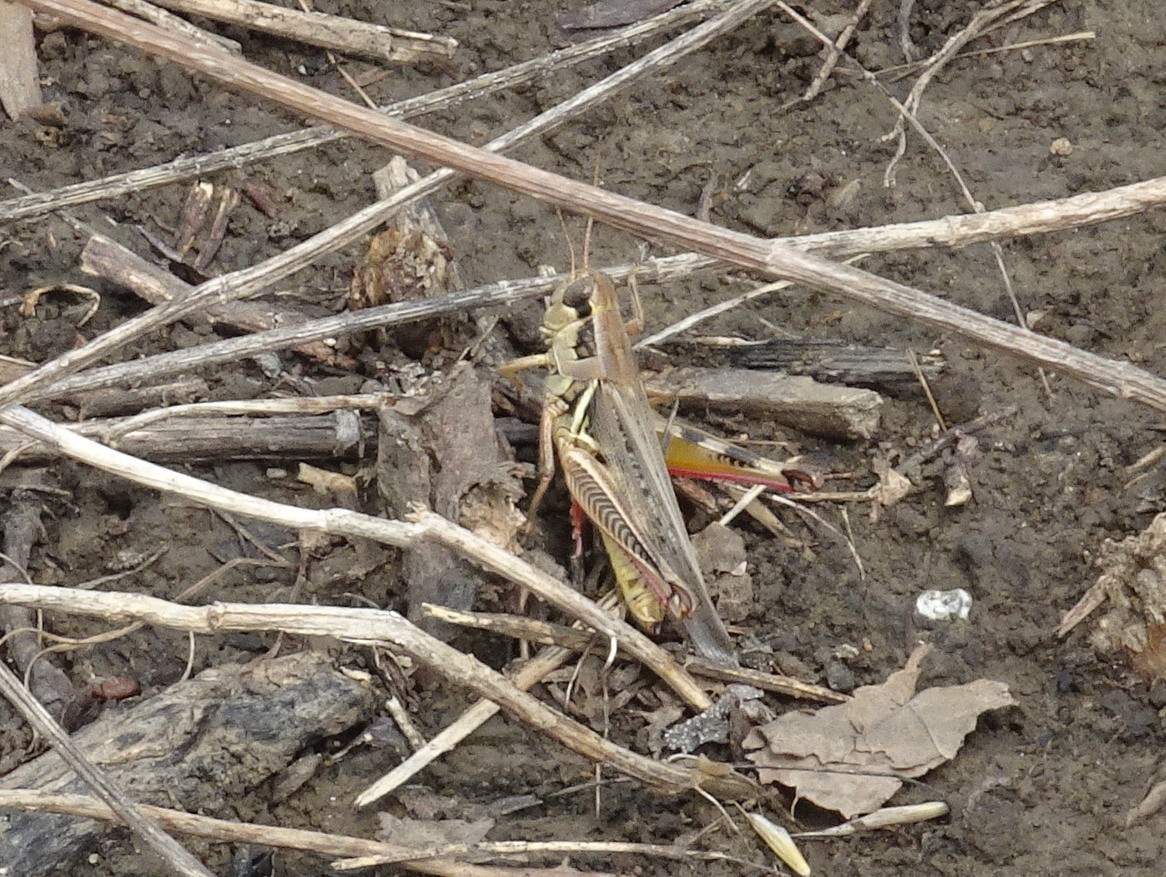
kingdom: Animalia
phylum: Arthropoda
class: Insecta
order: Orthoptera
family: Acrididae
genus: Melanoplus
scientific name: Melanoplus femurrubrum
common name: Red-legged grasshopper
